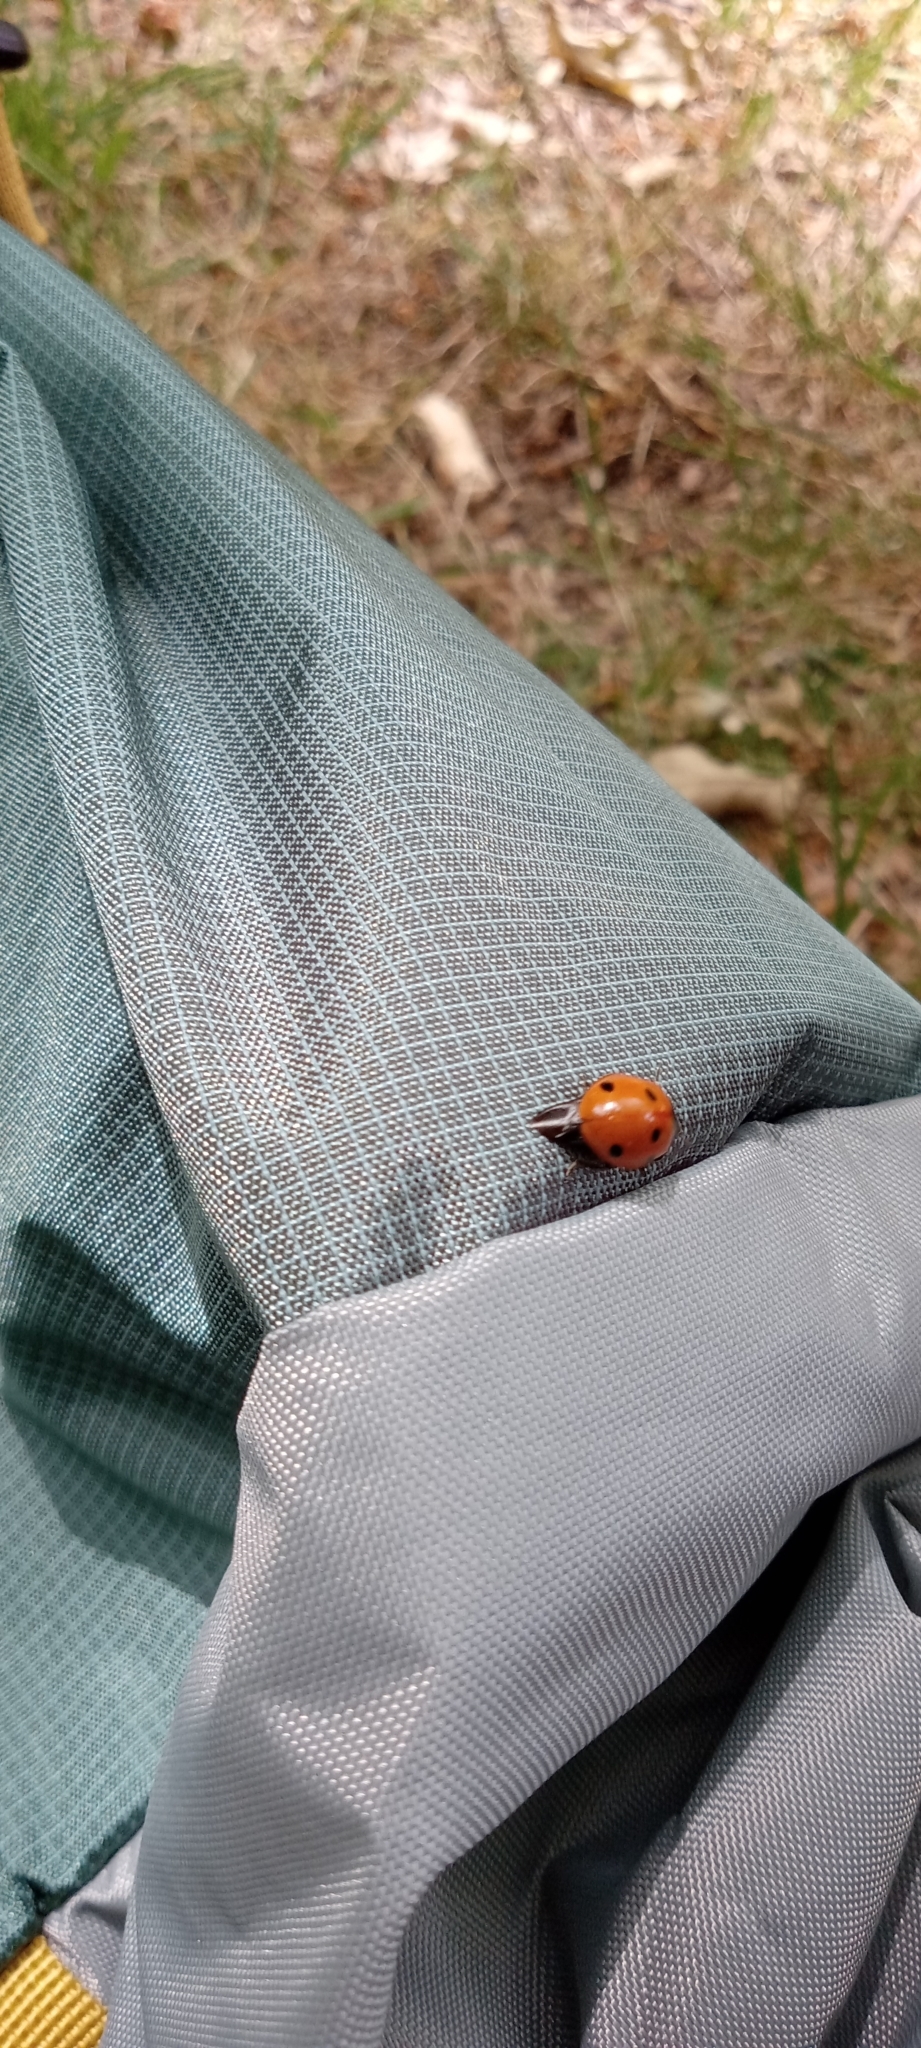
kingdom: Animalia
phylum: Arthropoda
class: Insecta
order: Coleoptera
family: Coccinellidae
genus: Coccinella
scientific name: Coccinella septempunctata
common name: Sevenspotted lady beetle
